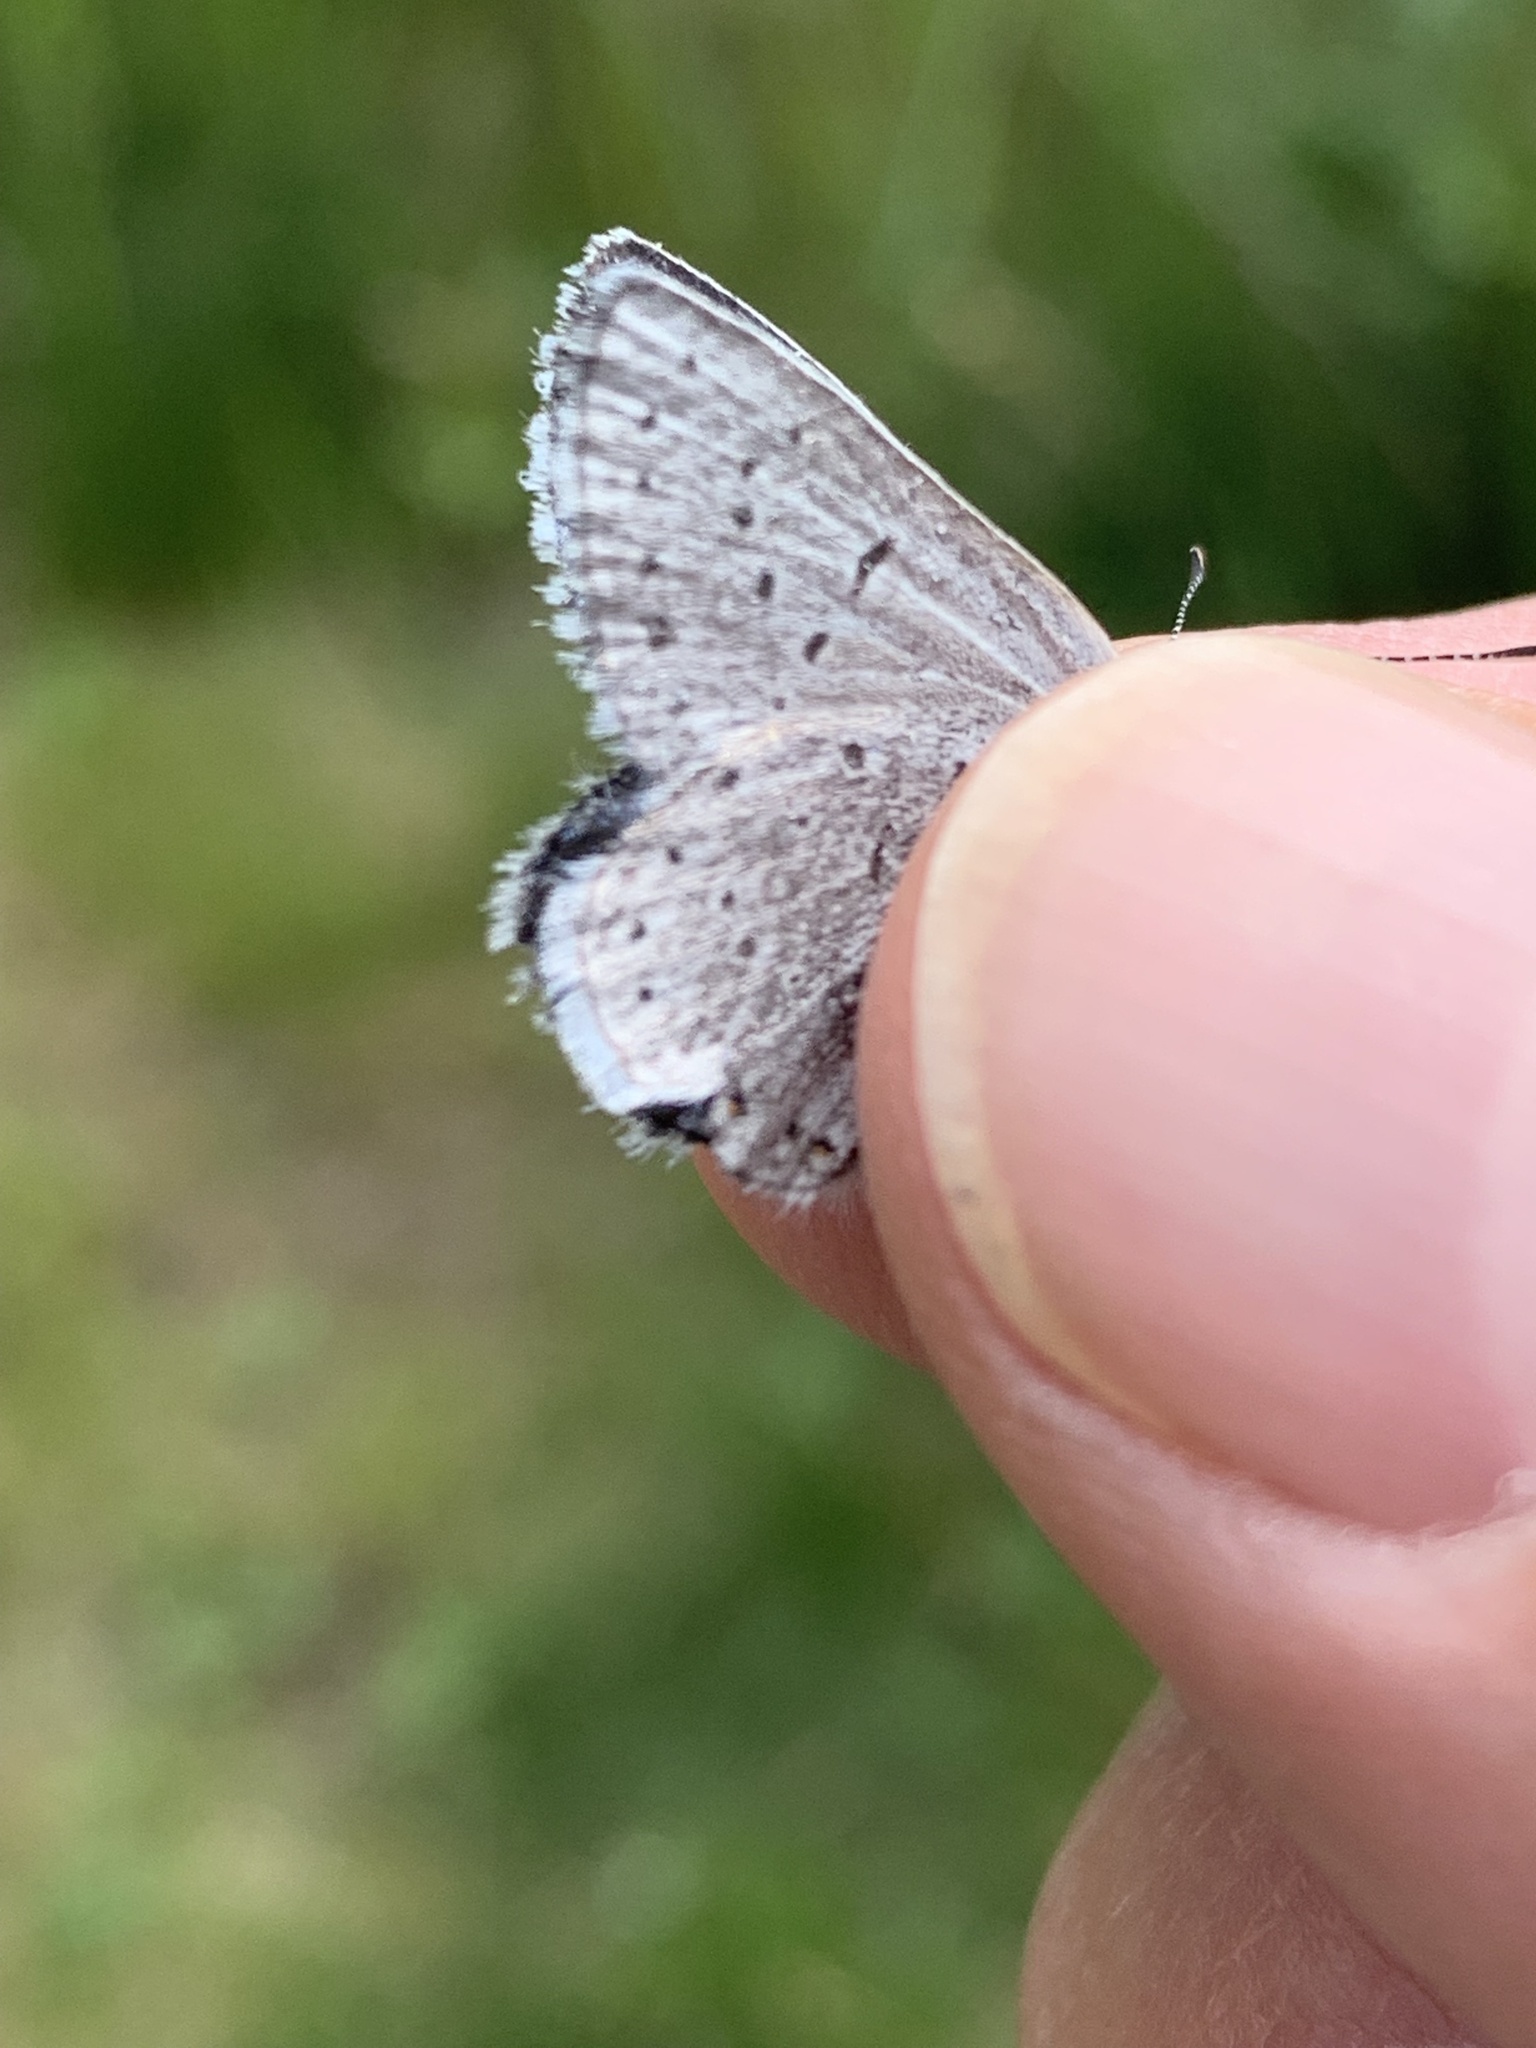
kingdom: Animalia
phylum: Arthropoda
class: Insecta
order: Lepidoptera
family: Lycaenidae
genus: Icaricia
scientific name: Icaricia saepiolus
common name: Greenish blue
